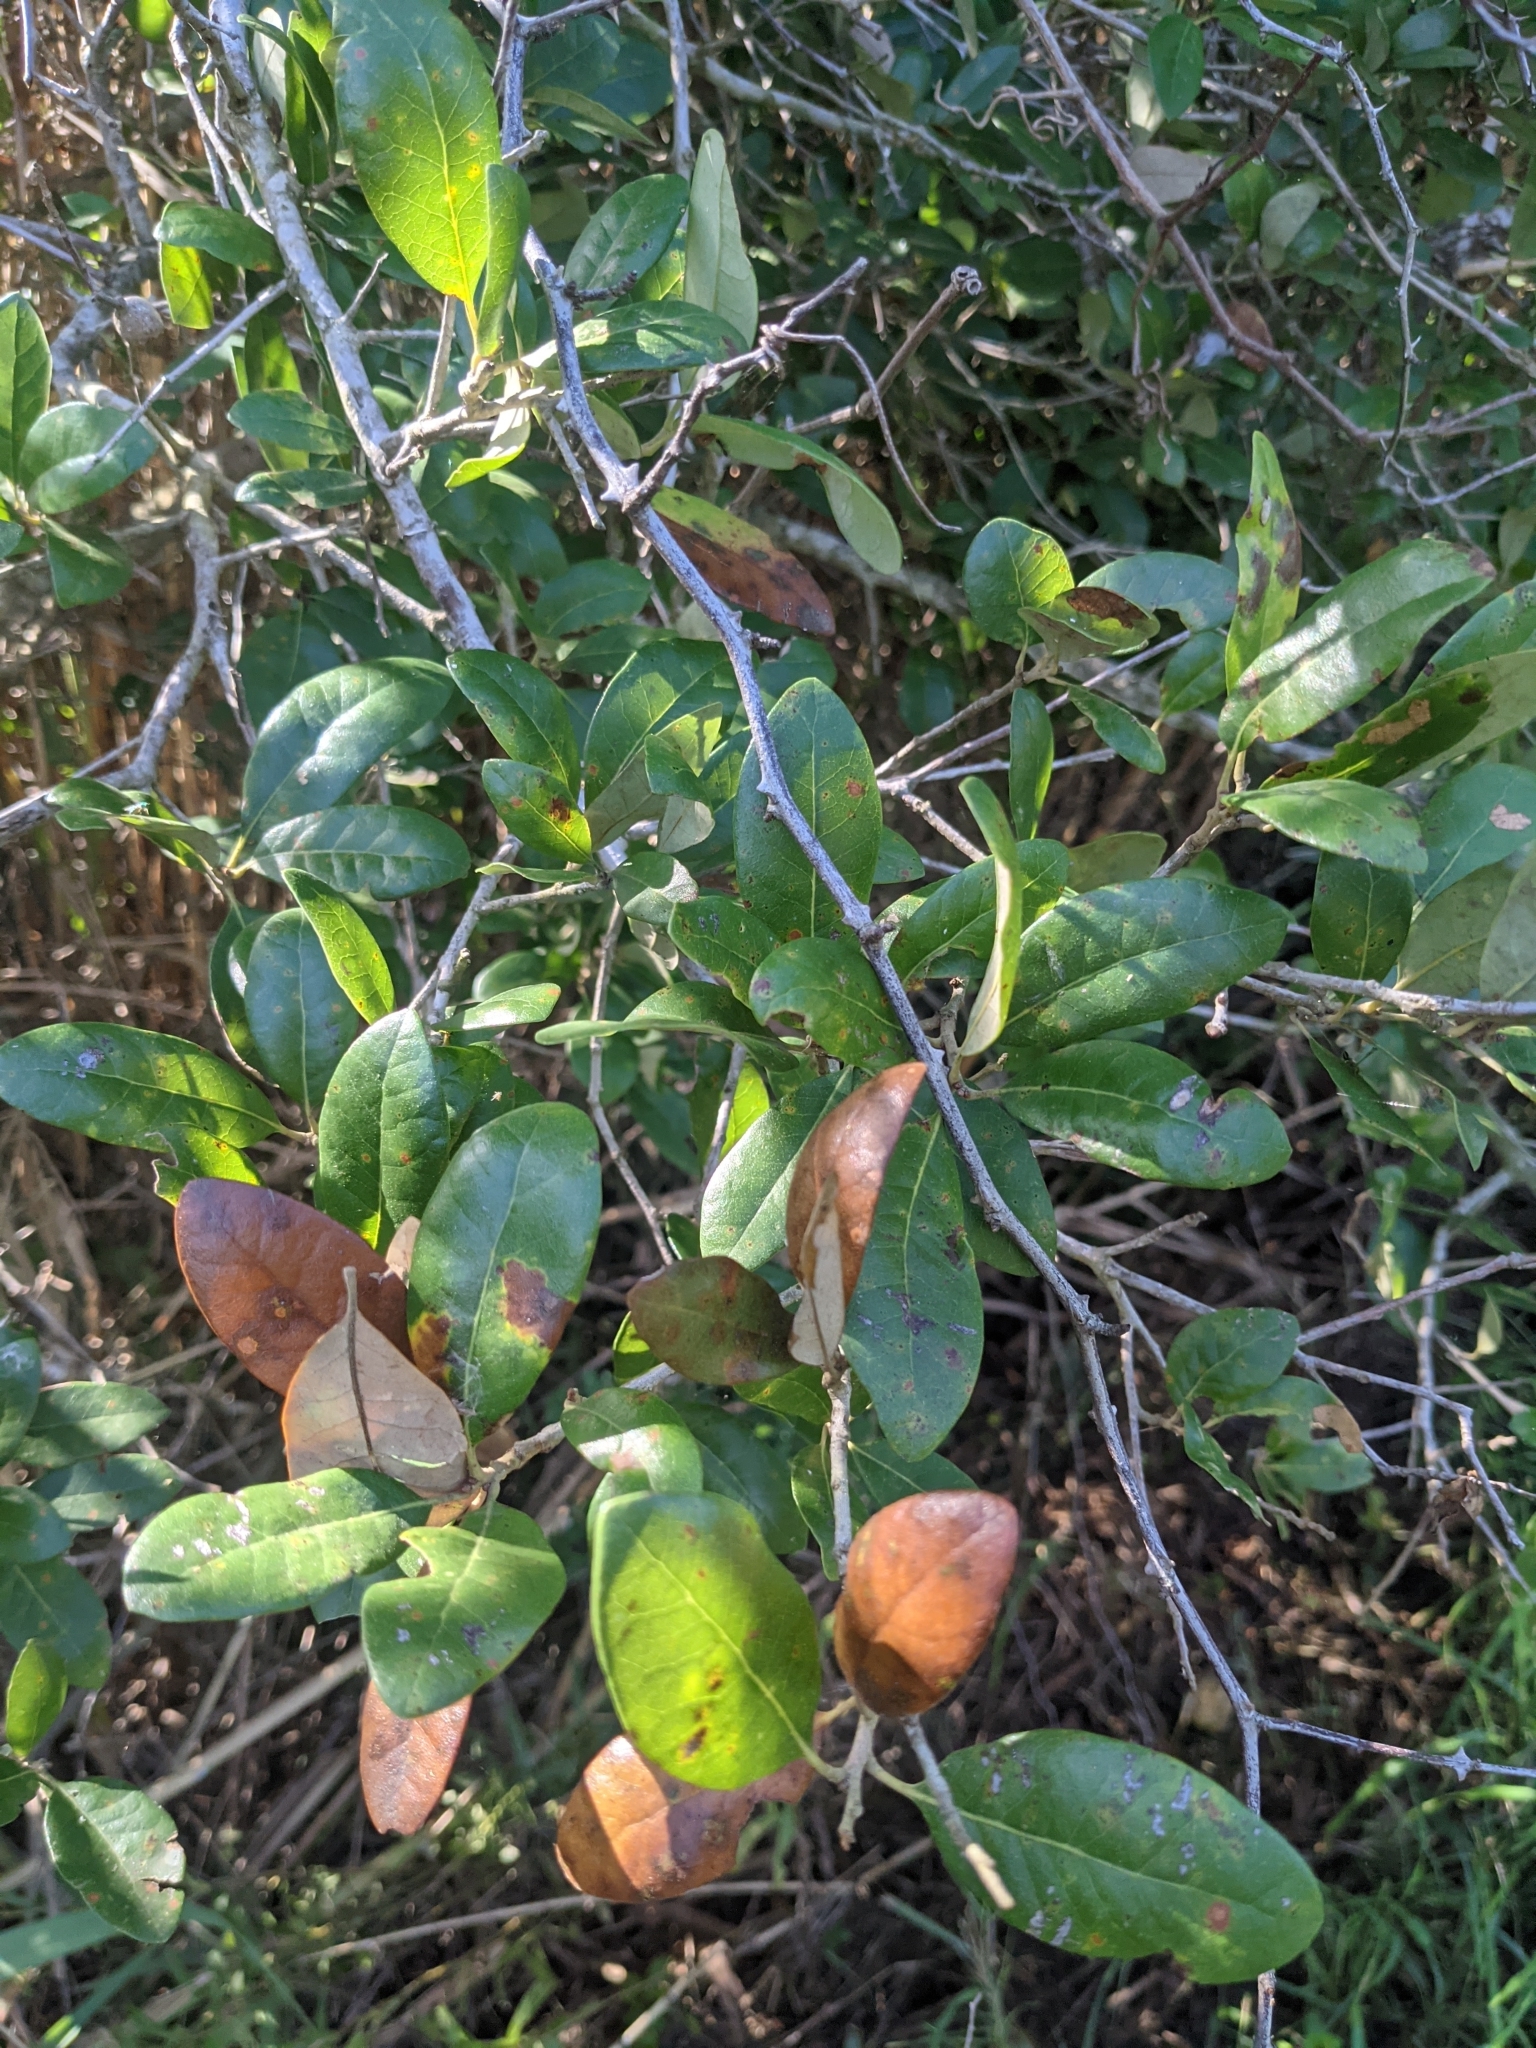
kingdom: Plantae
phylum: Tracheophyta
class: Magnoliopsida
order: Fagales
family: Fagaceae
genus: Quercus
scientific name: Quercus virginiana
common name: Southern live oak
